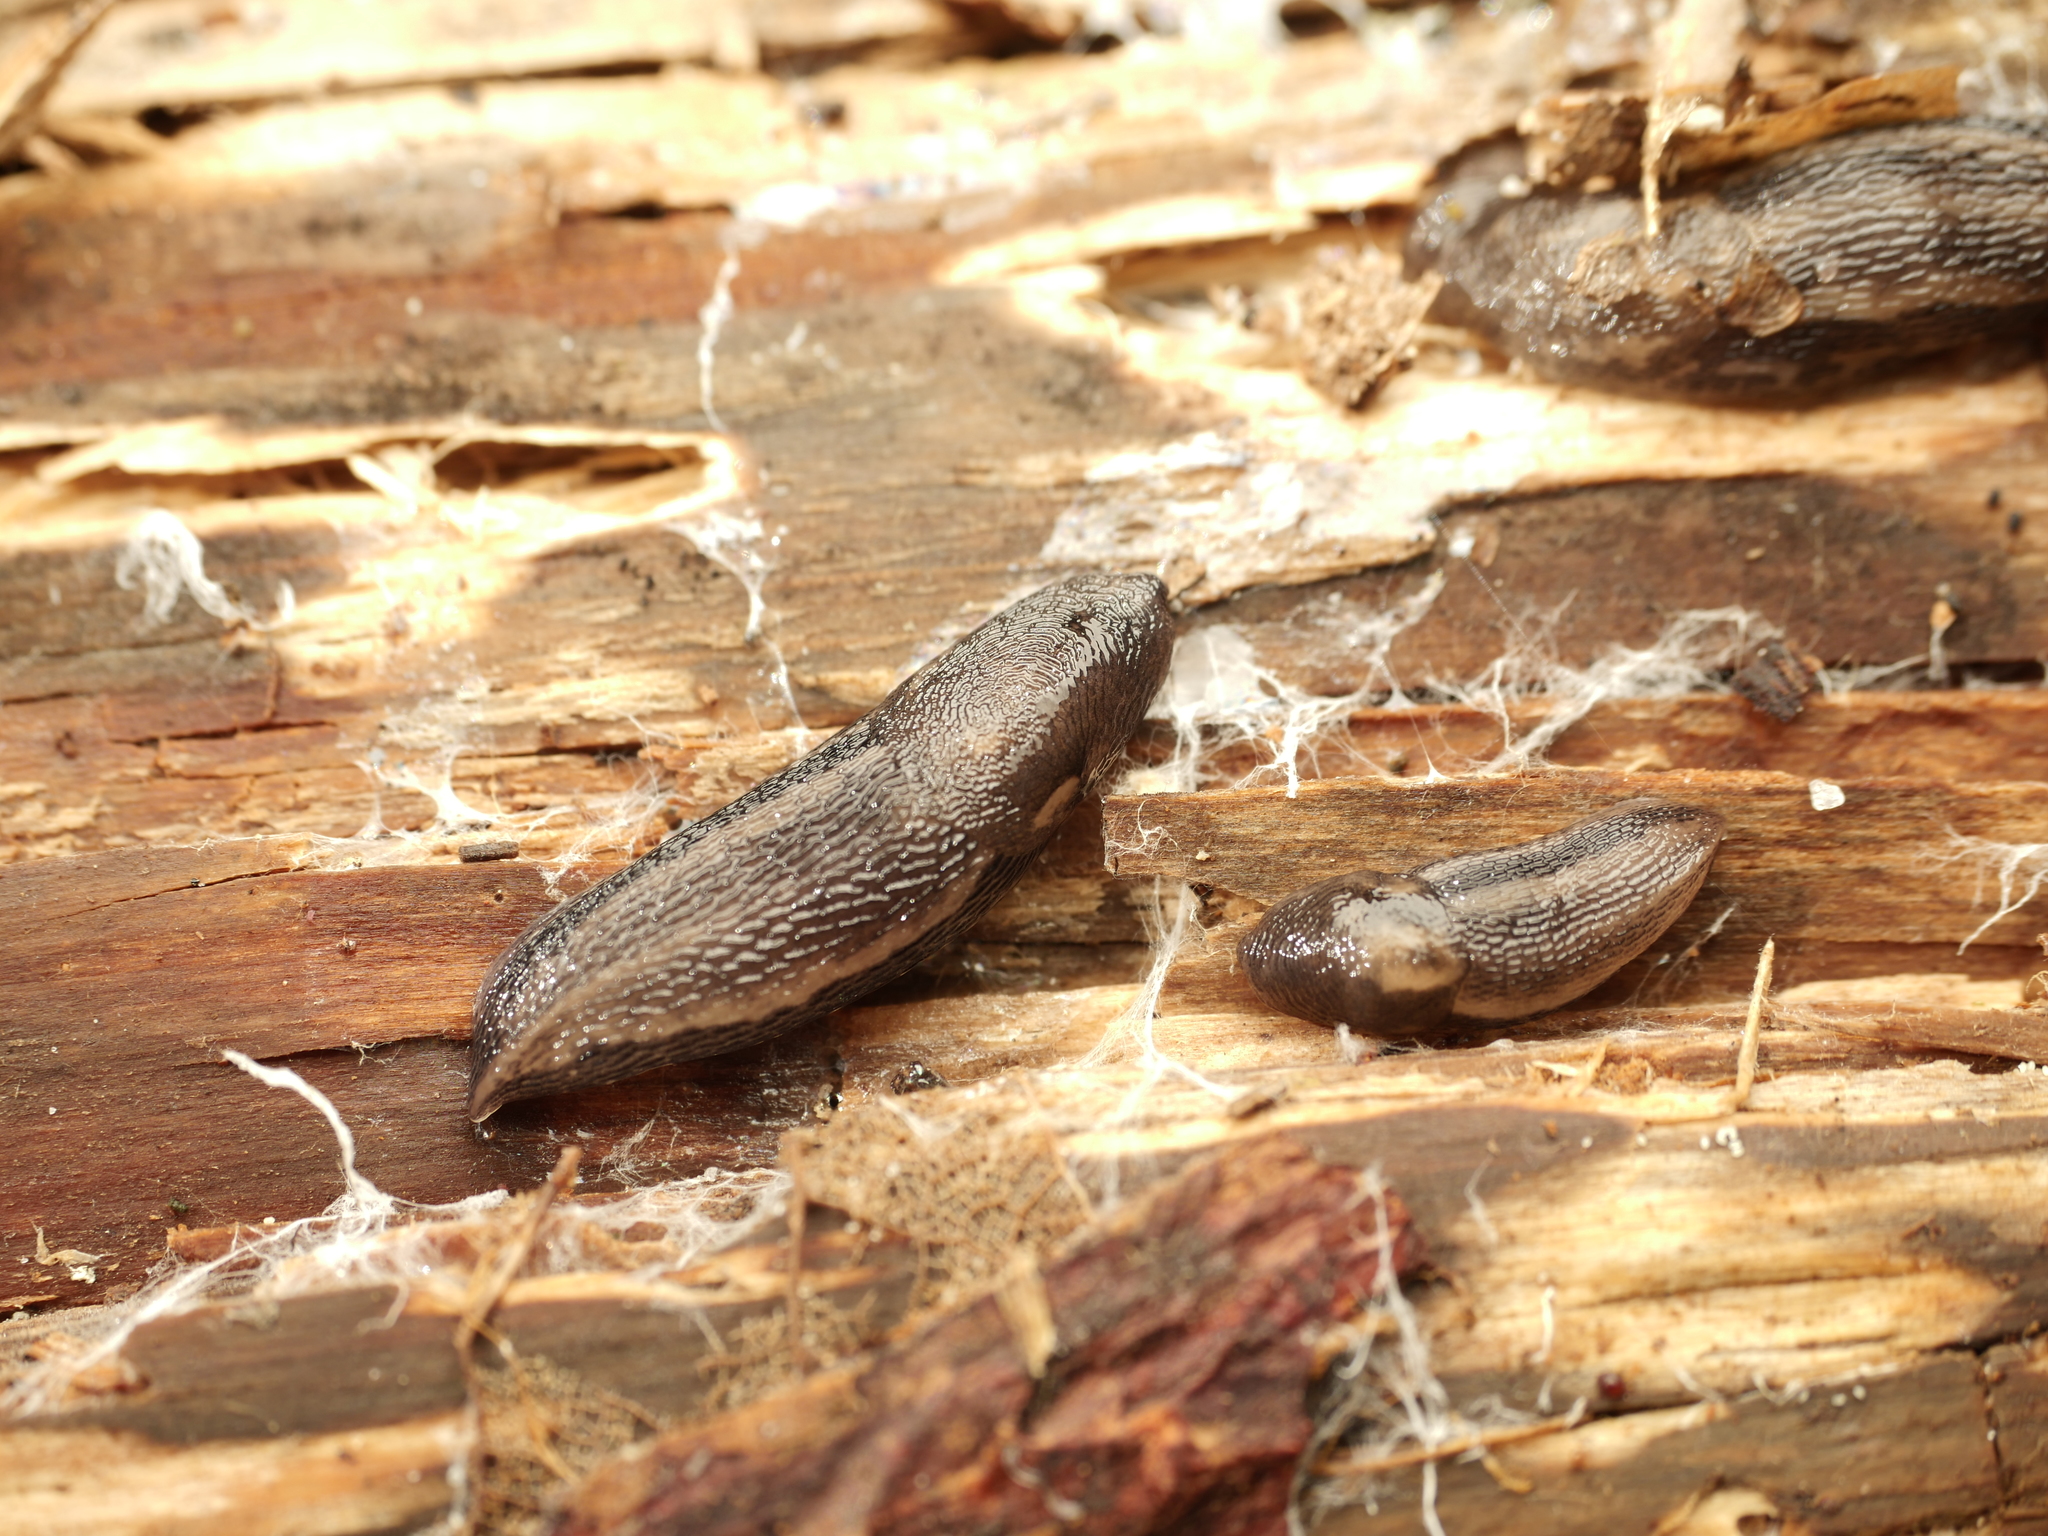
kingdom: Animalia
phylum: Mollusca
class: Gastropoda
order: Stylommatophora
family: Limacidae
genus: Limax
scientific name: Limax maximus
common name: Great grey slug
